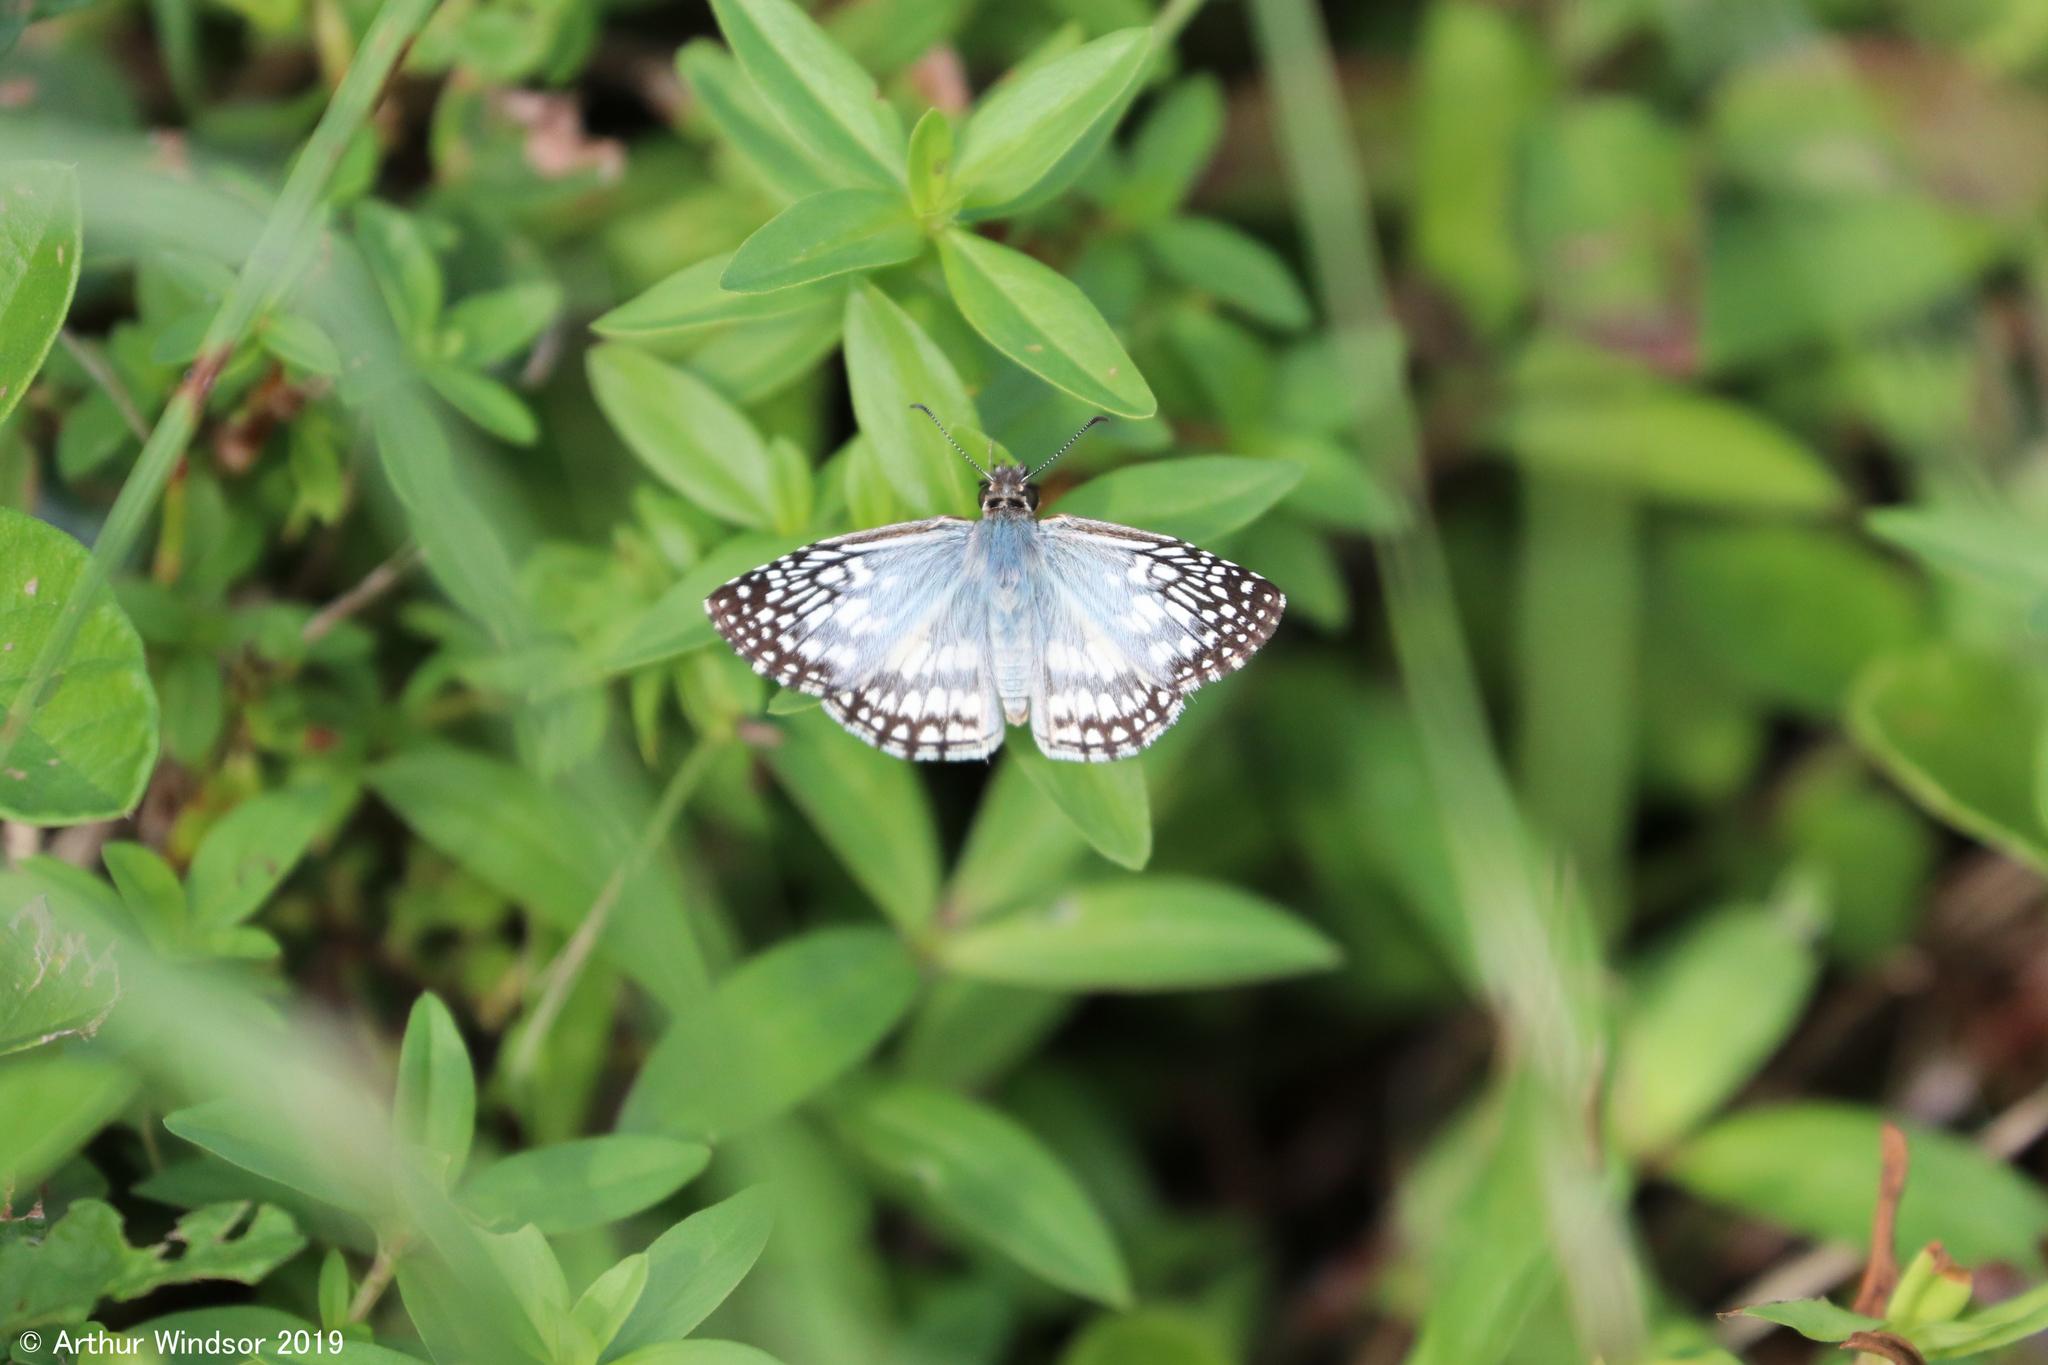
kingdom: Animalia
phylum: Arthropoda
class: Insecta
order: Lepidoptera
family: Hesperiidae
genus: Pyrgus
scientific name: Pyrgus oileus
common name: Tropical checkered-skipper
